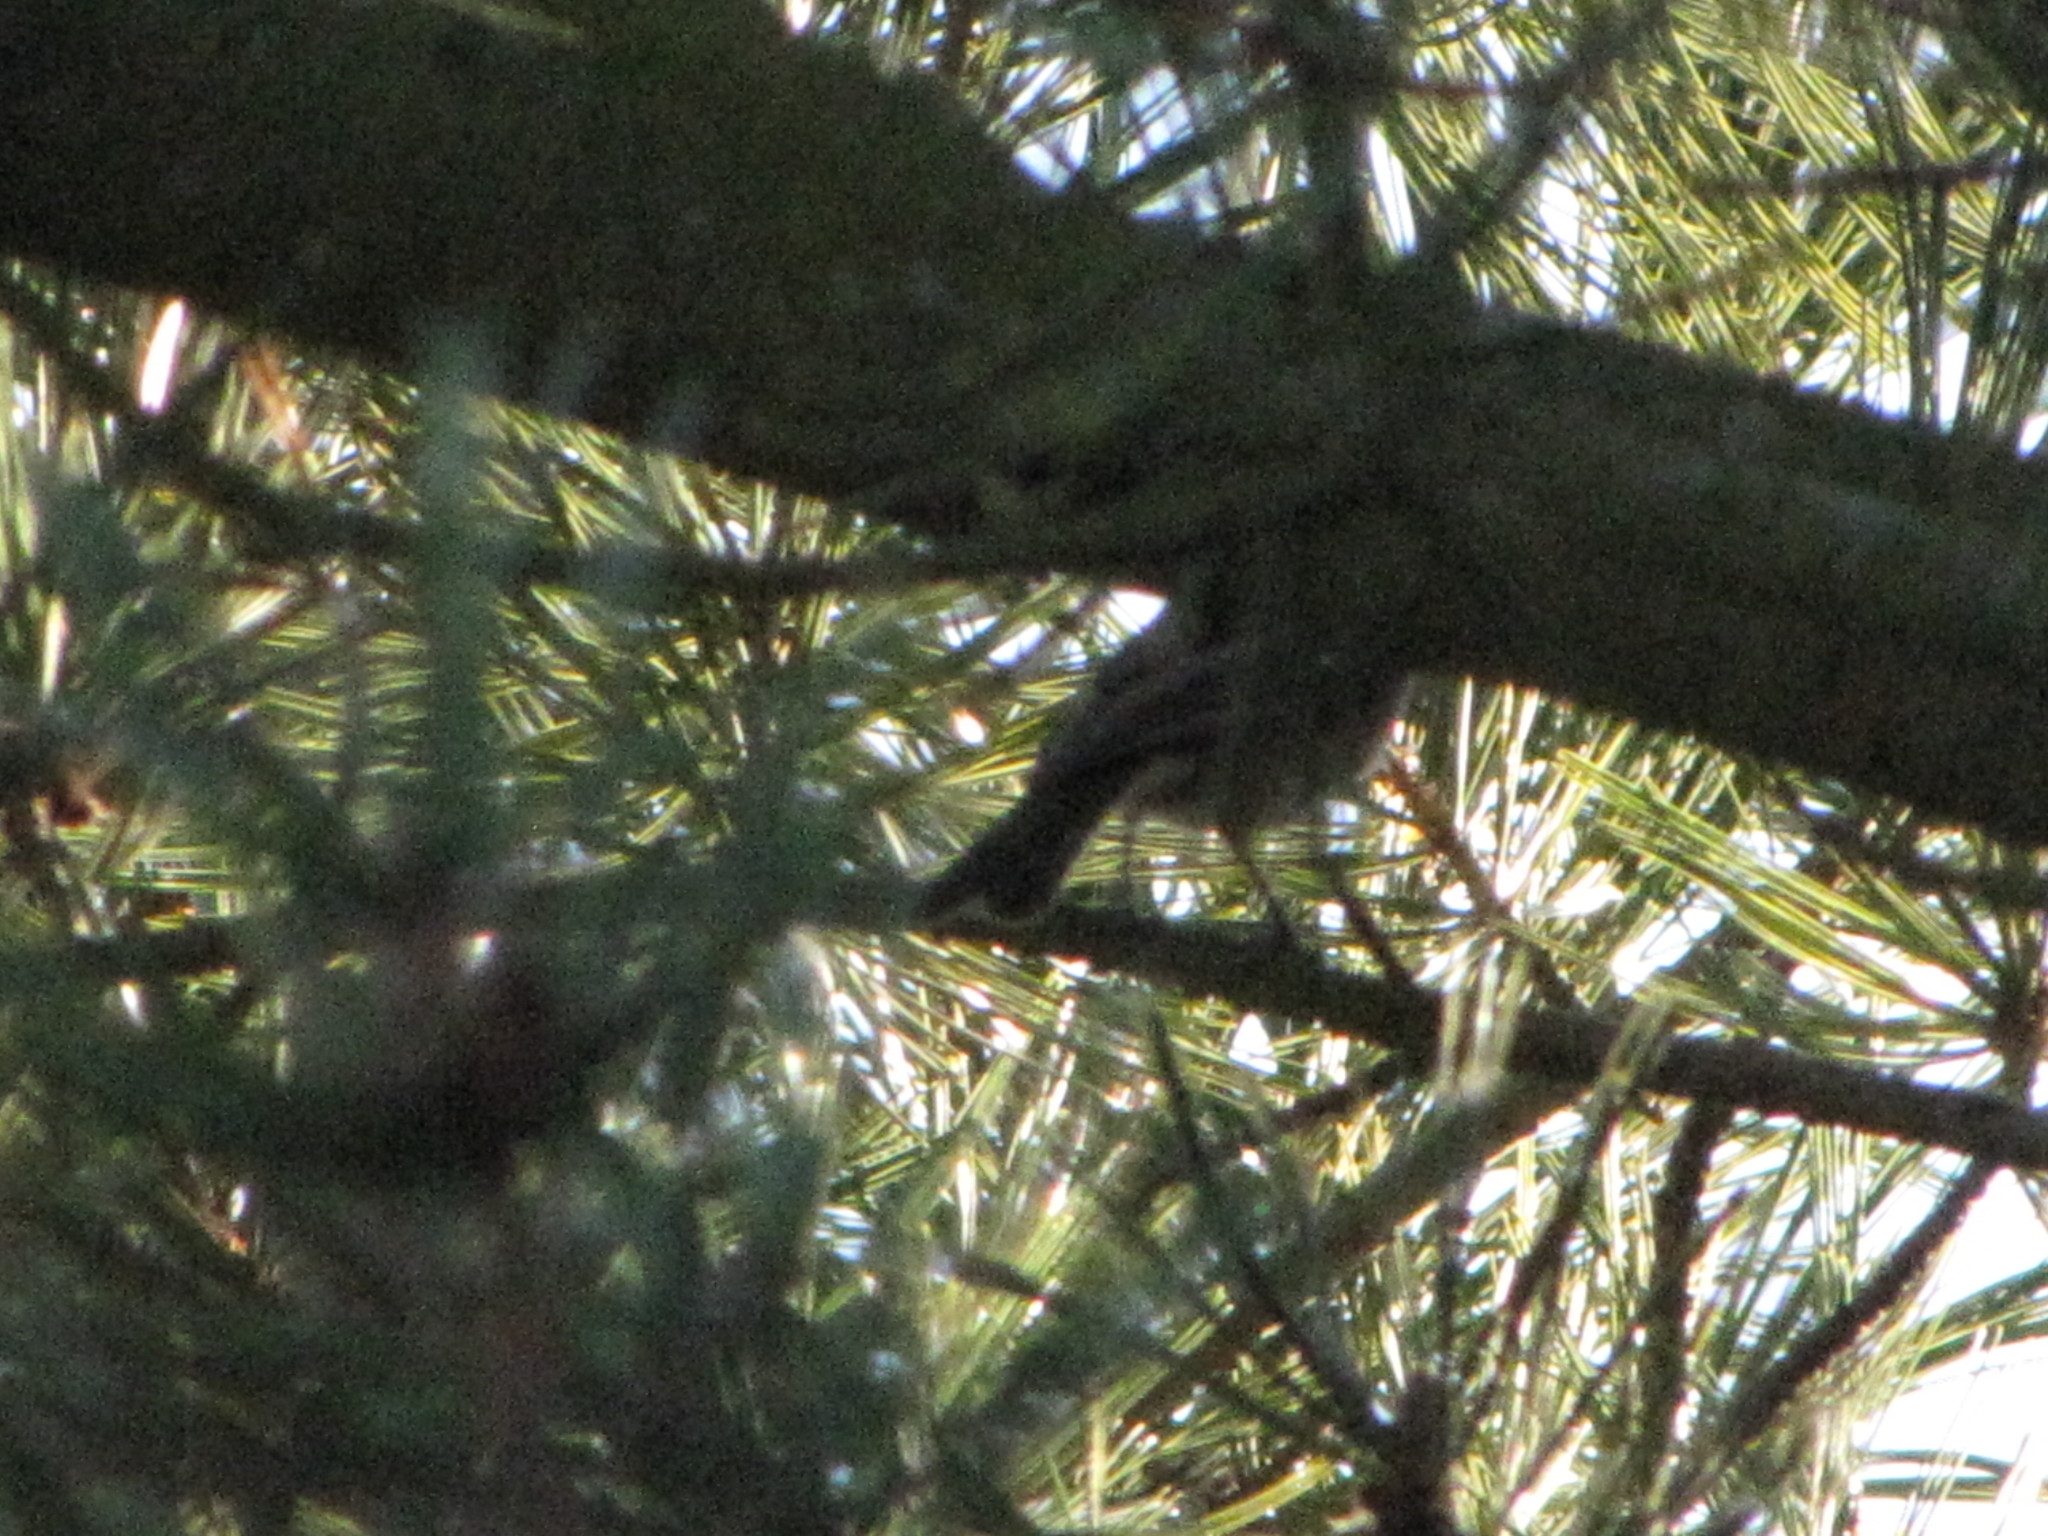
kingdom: Animalia
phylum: Chordata
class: Aves
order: Passeriformes
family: Turdidae
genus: Turdus
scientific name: Turdus migratorius
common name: American robin
